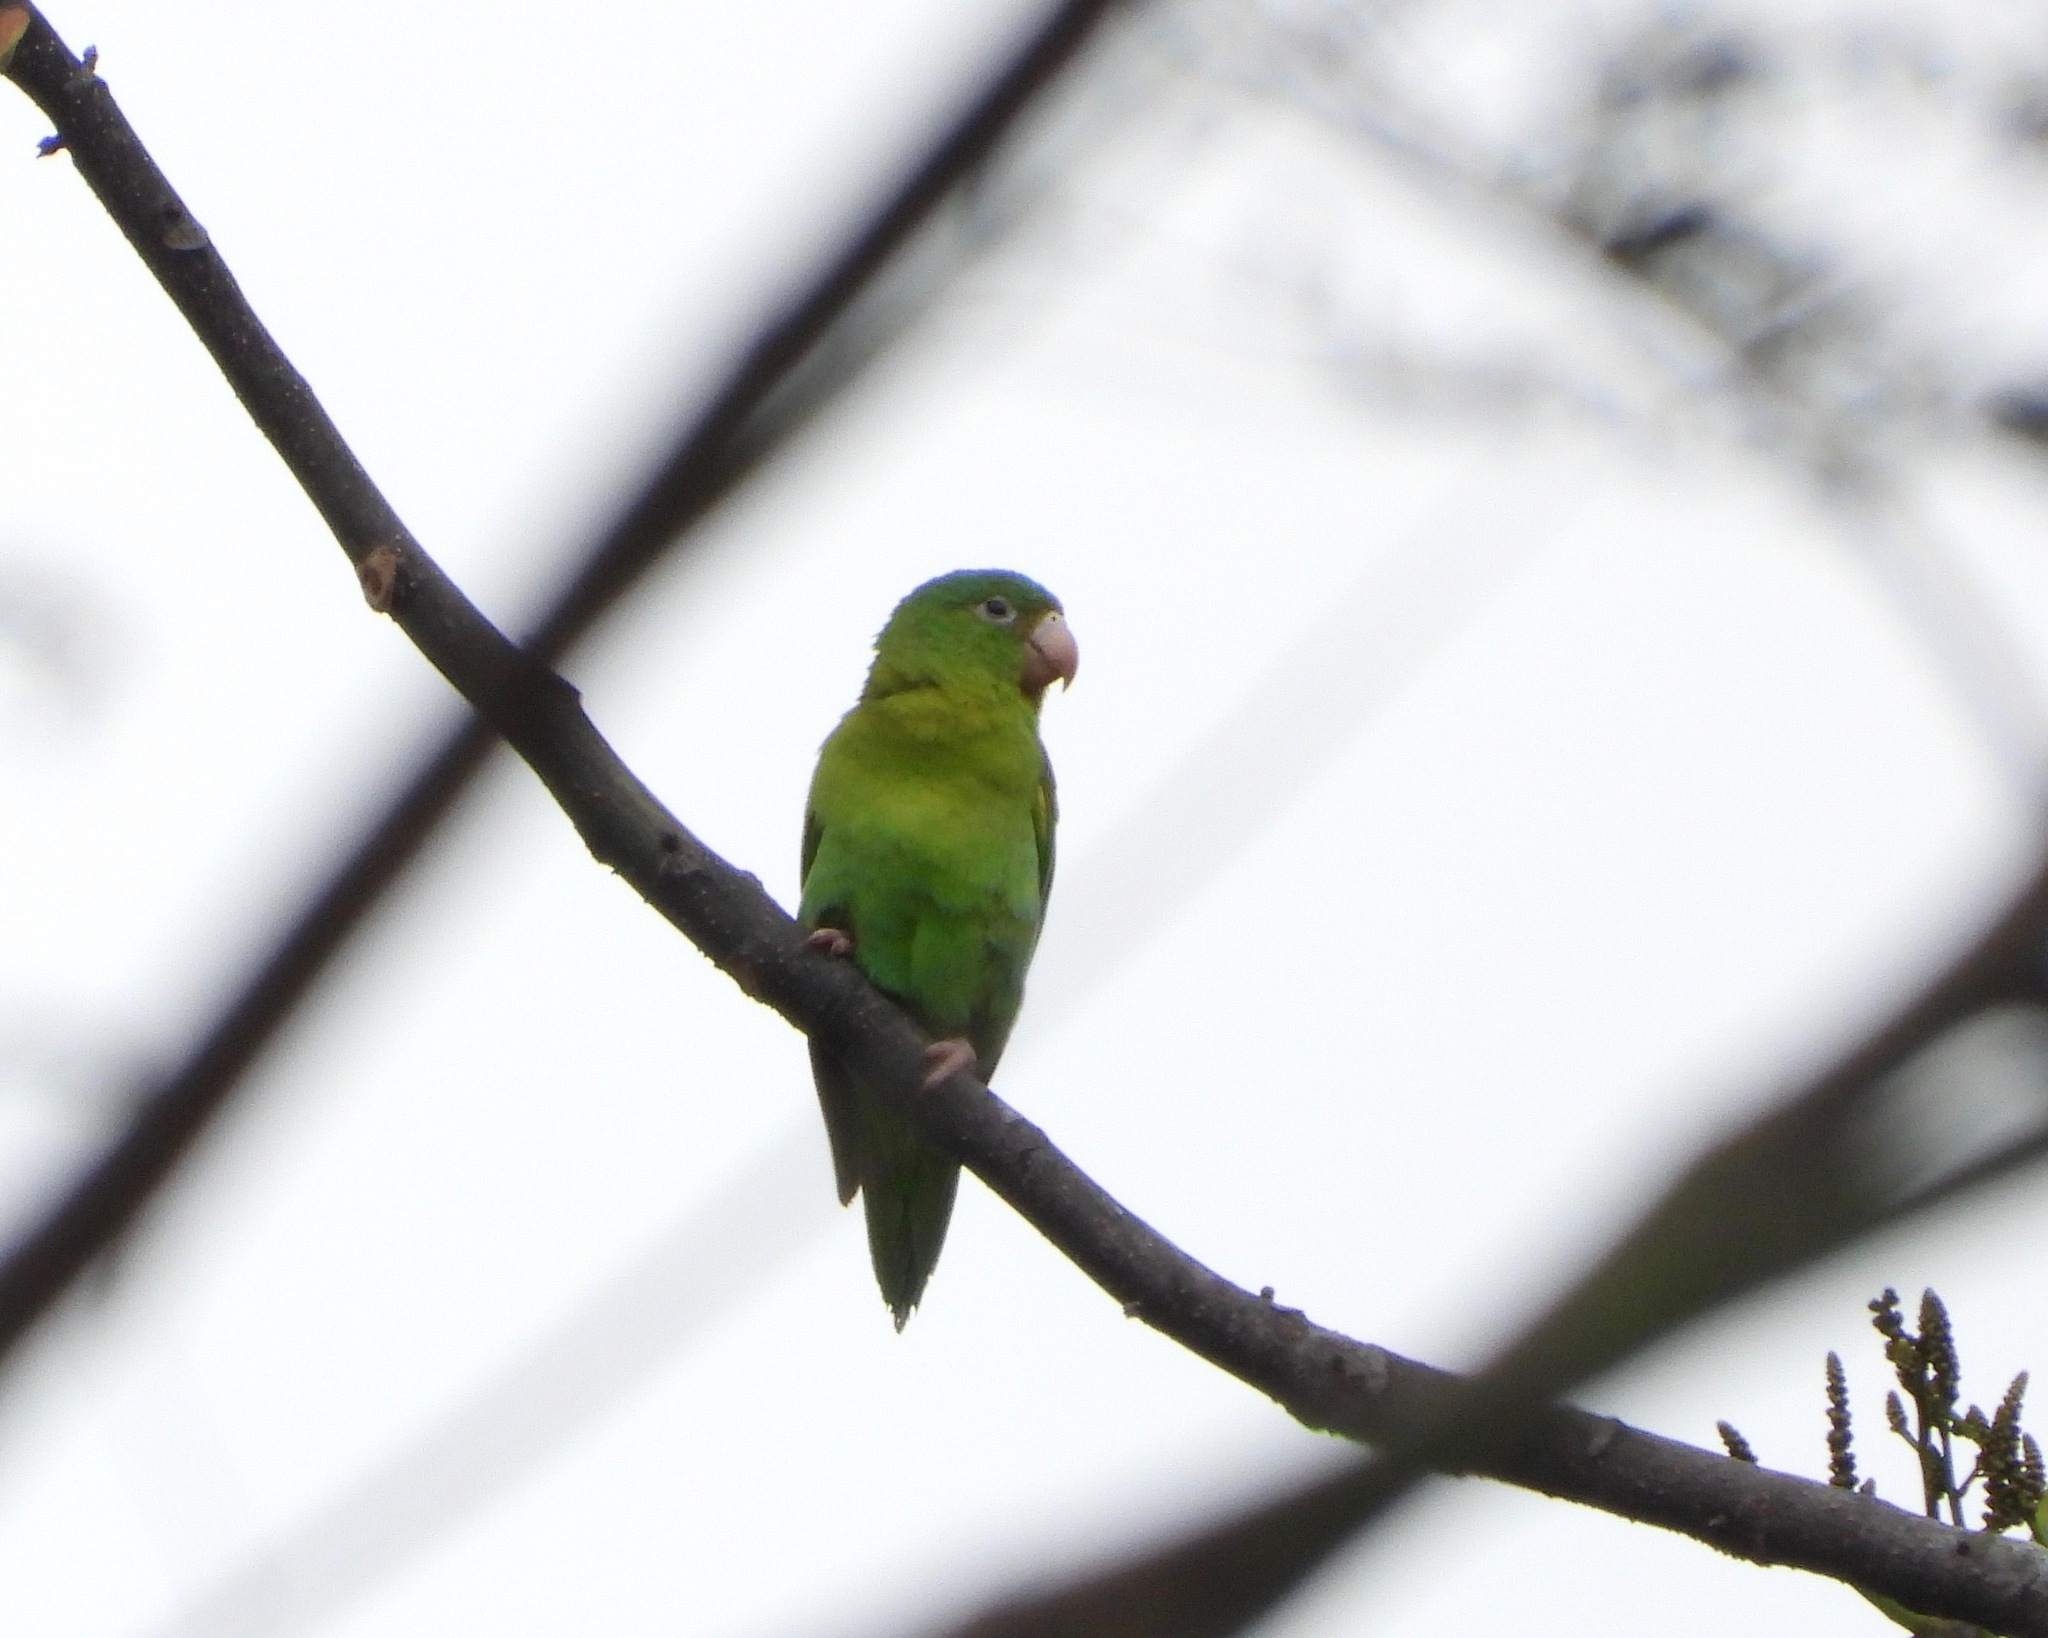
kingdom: Animalia
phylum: Chordata
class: Aves
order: Psittaciformes
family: Psittacidae
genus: Brotogeris
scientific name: Brotogeris jugularis
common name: Orange-chinned parakeet
